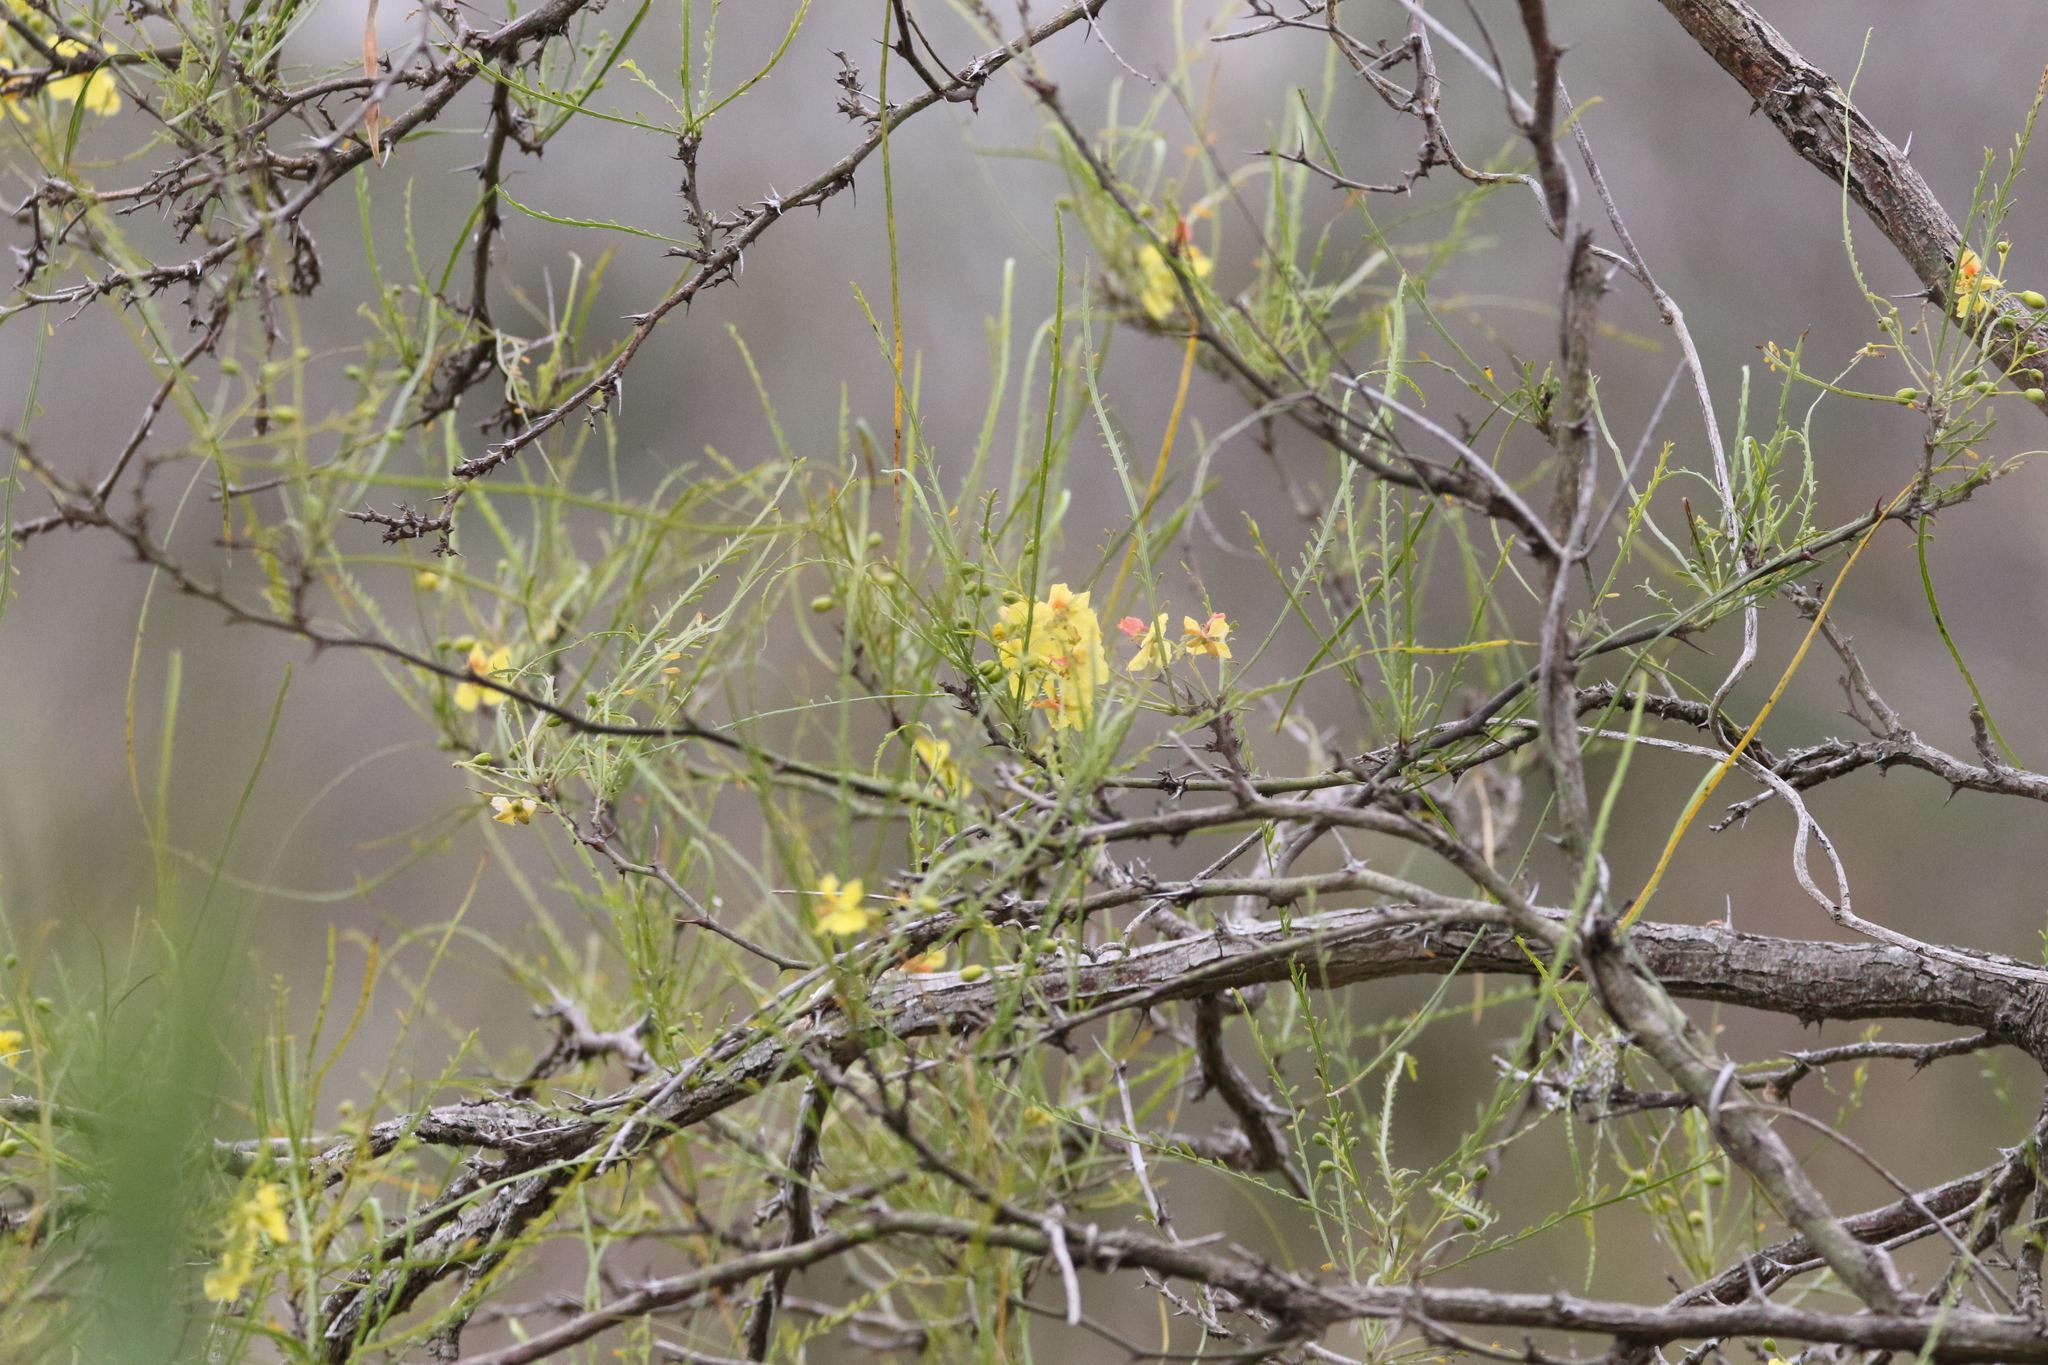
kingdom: Plantae
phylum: Tracheophyta
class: Magnoliopsida
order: Fabales
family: Fabaceae
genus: Parkinsonia
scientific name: Parkinsonia aculeata
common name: Jerusalem thorn
